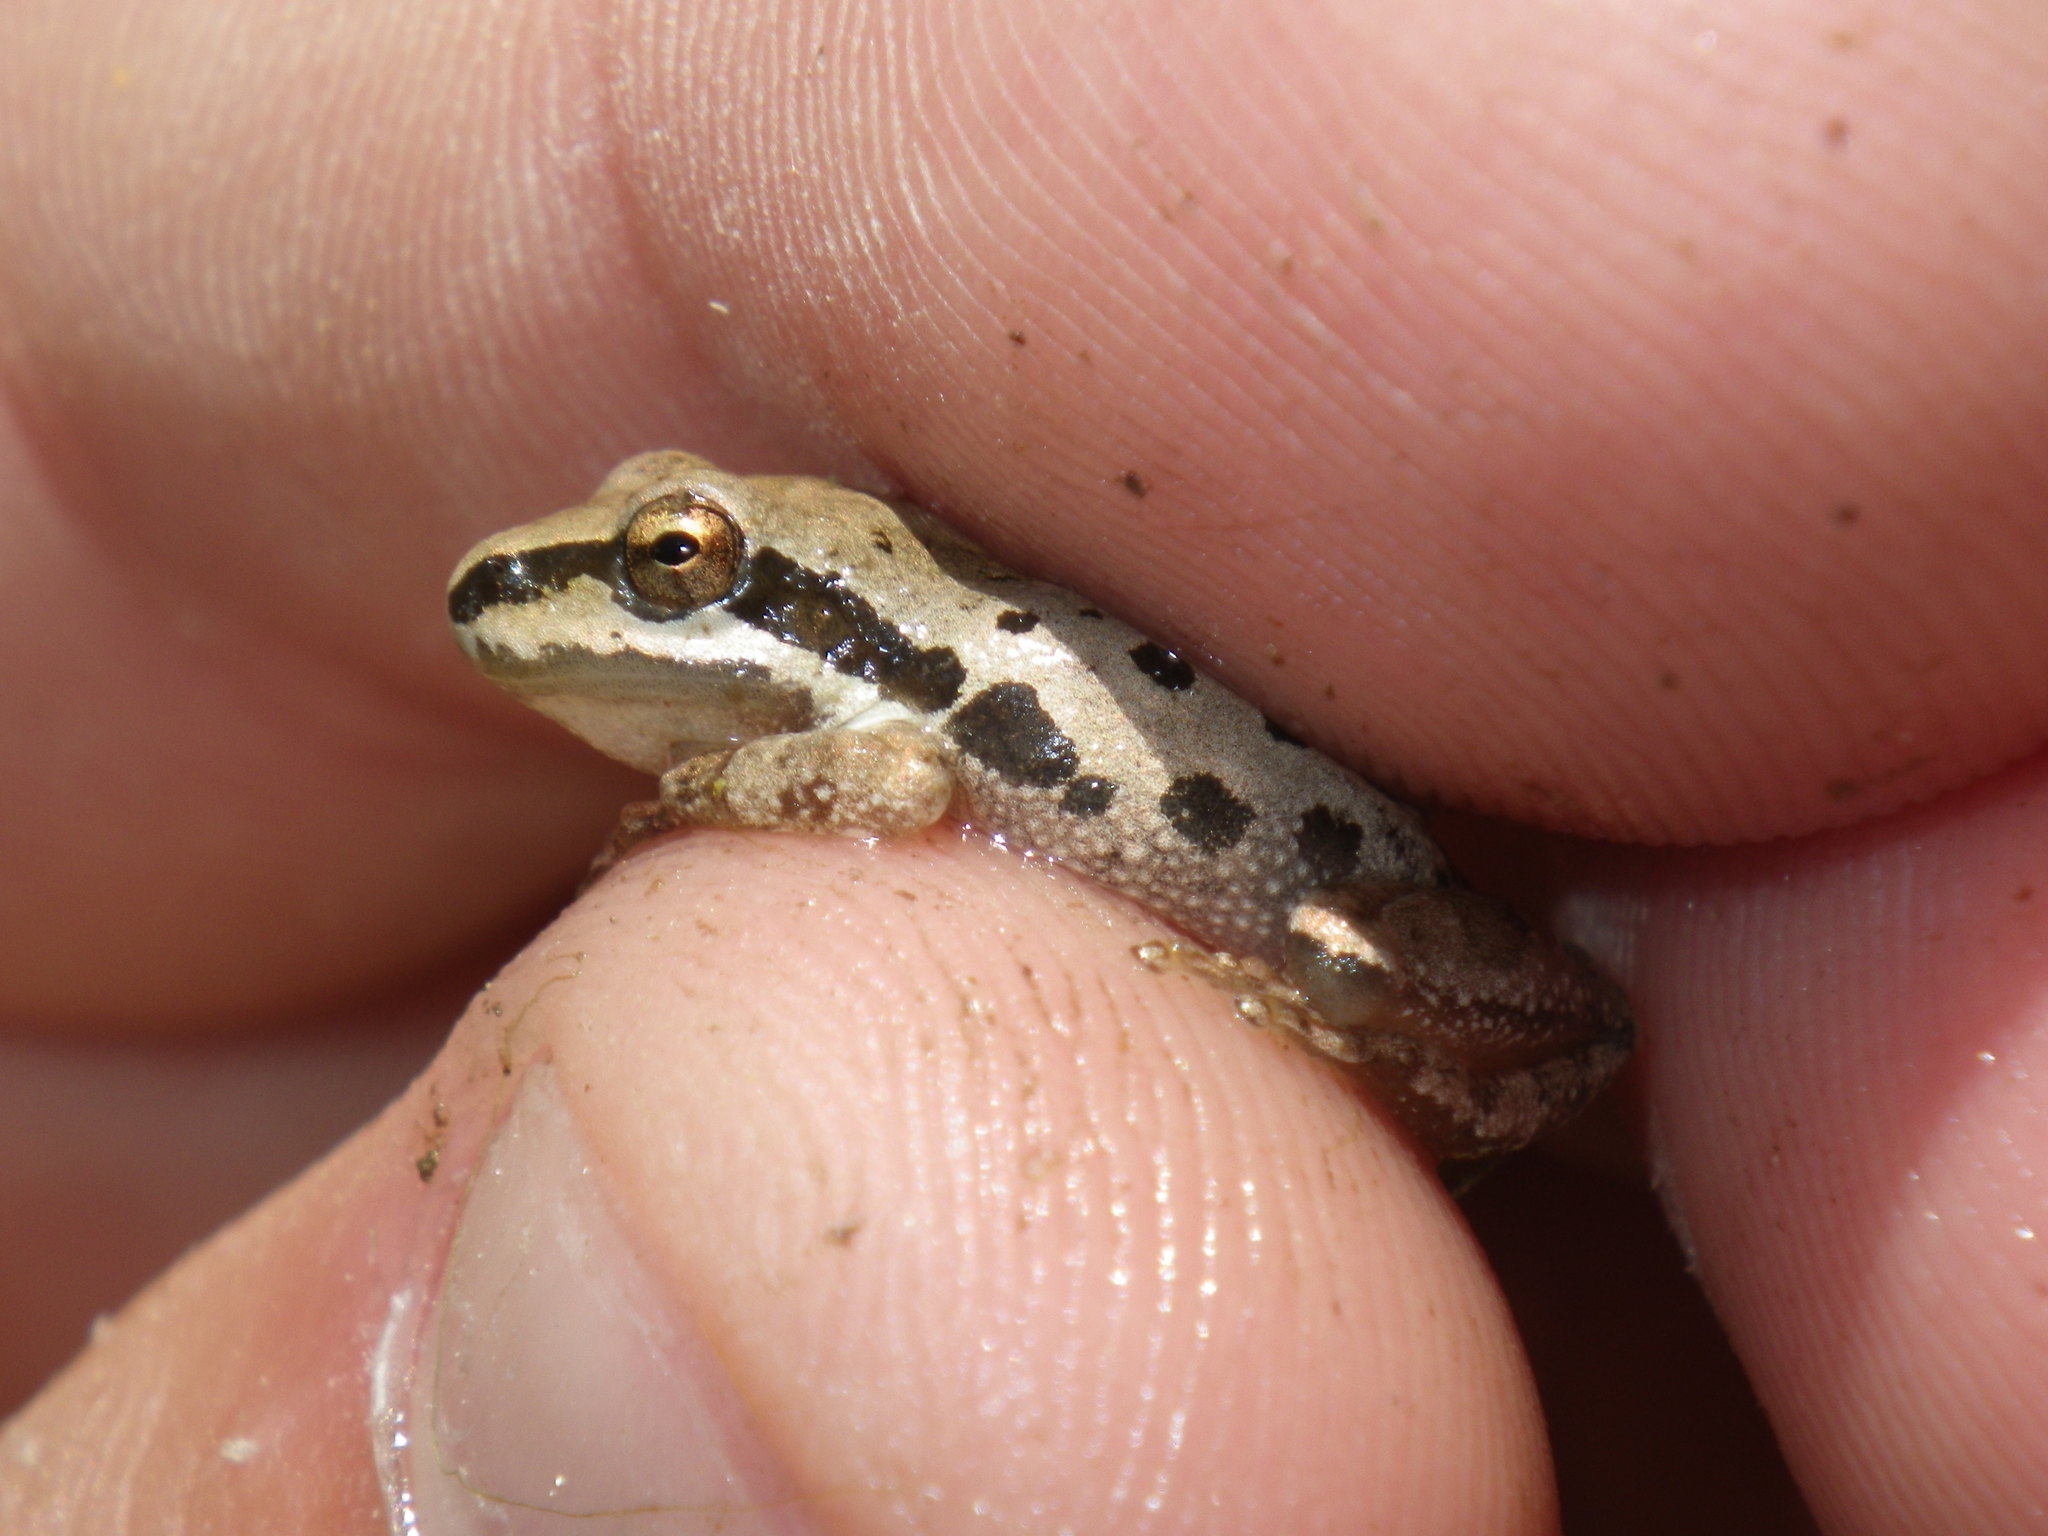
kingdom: Animalia
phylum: Chordata
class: Amphibia
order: Anura
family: Hylidae
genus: Pseudacris
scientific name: Pseudacris regilla
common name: Pacific chorus frog
